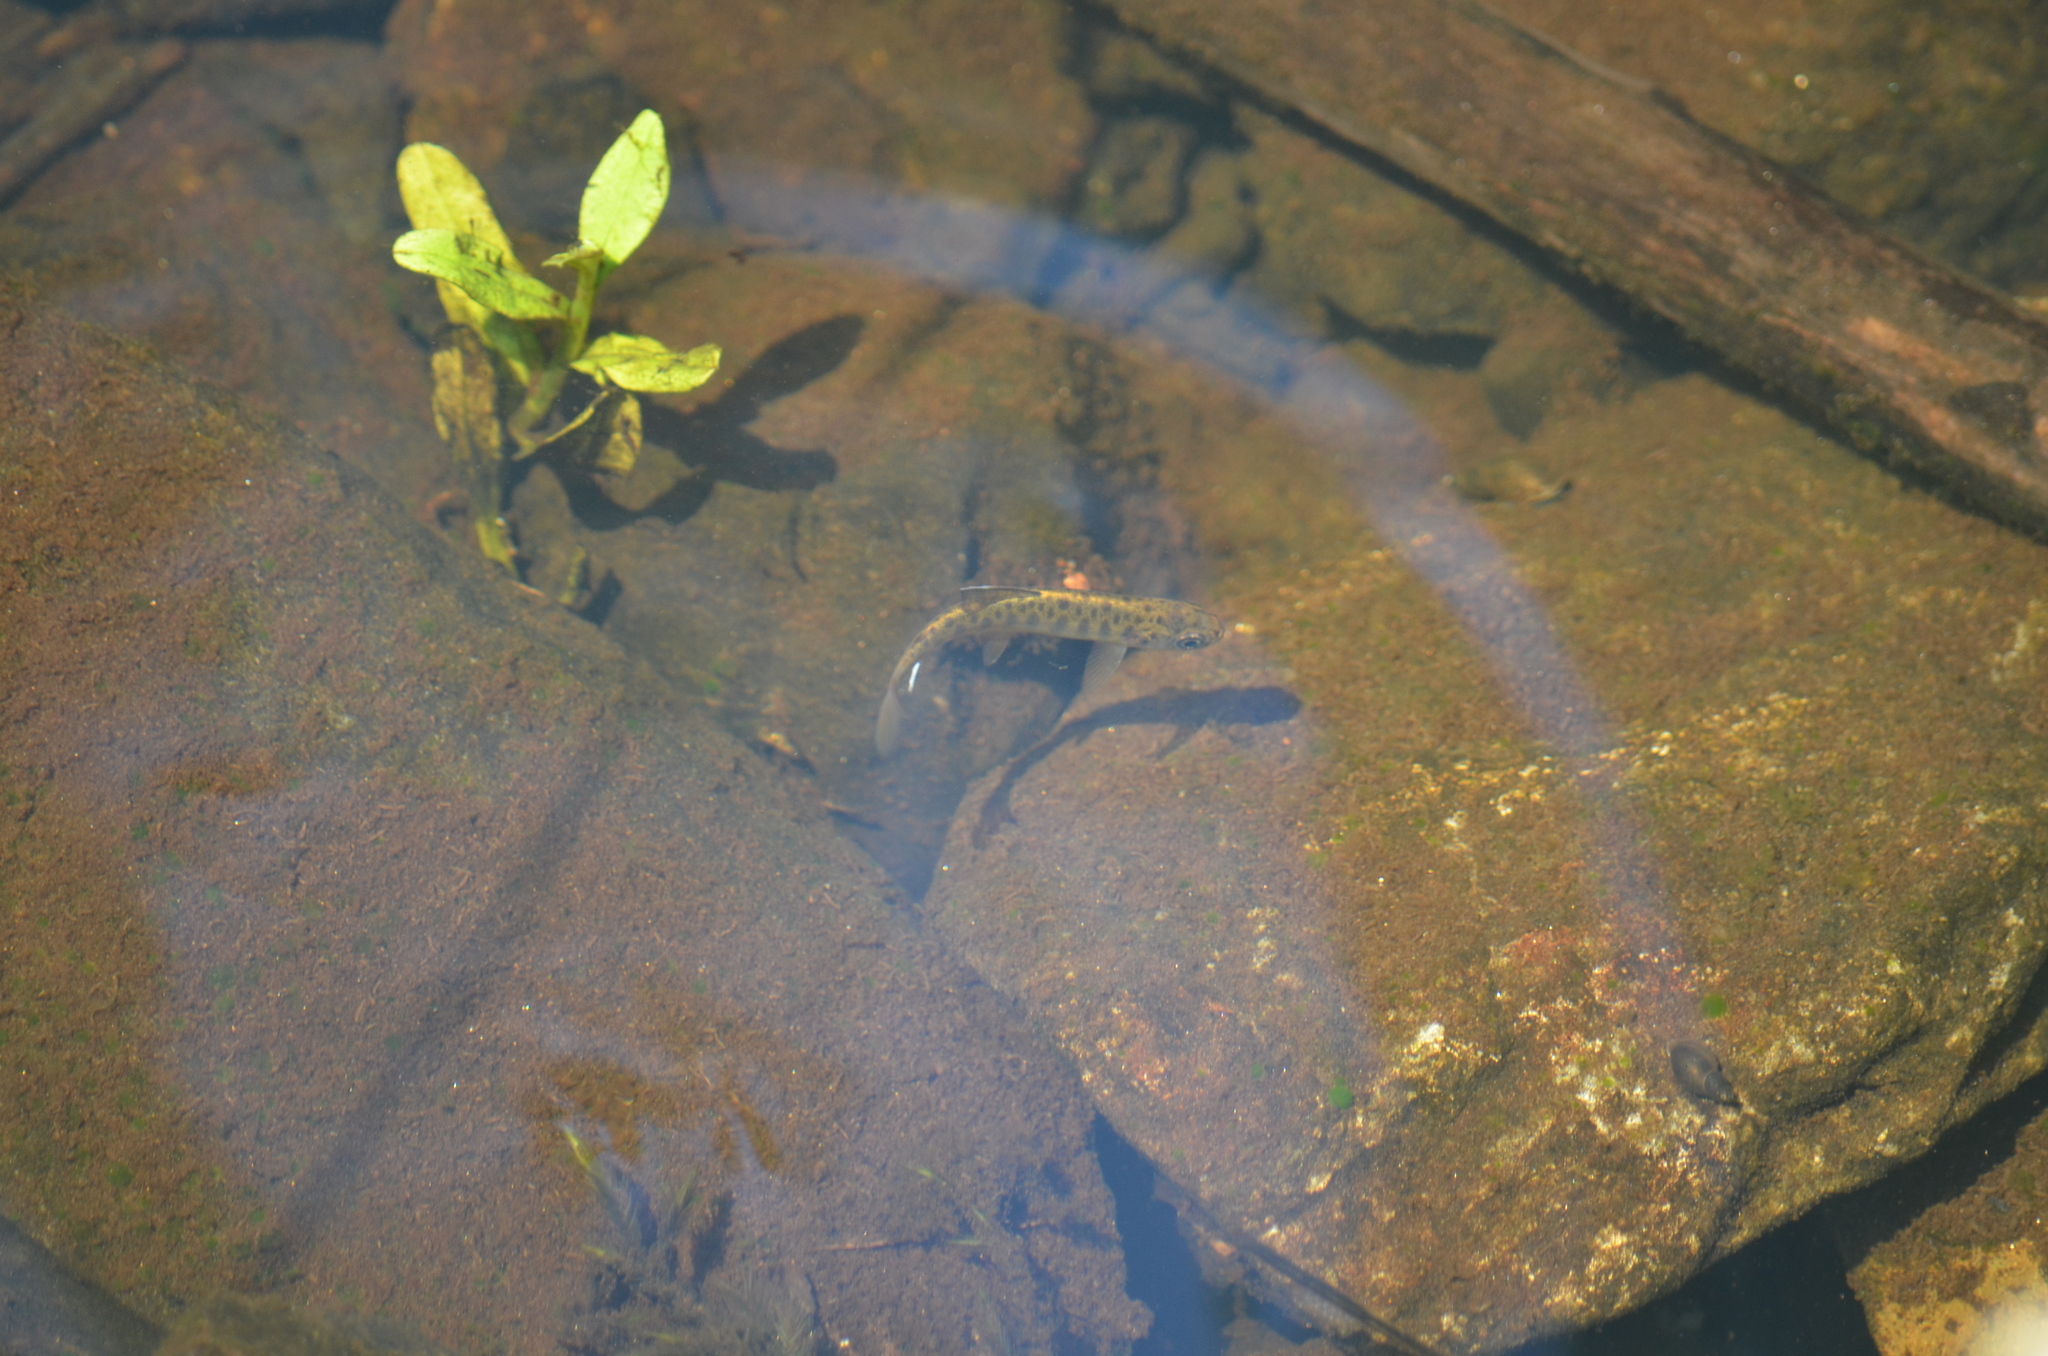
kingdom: Animalia
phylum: Chordata
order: Salmoniformes
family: Salmonidae
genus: Oncorhynchus
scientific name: Oncorhynchus kisutch
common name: Coho salmon
